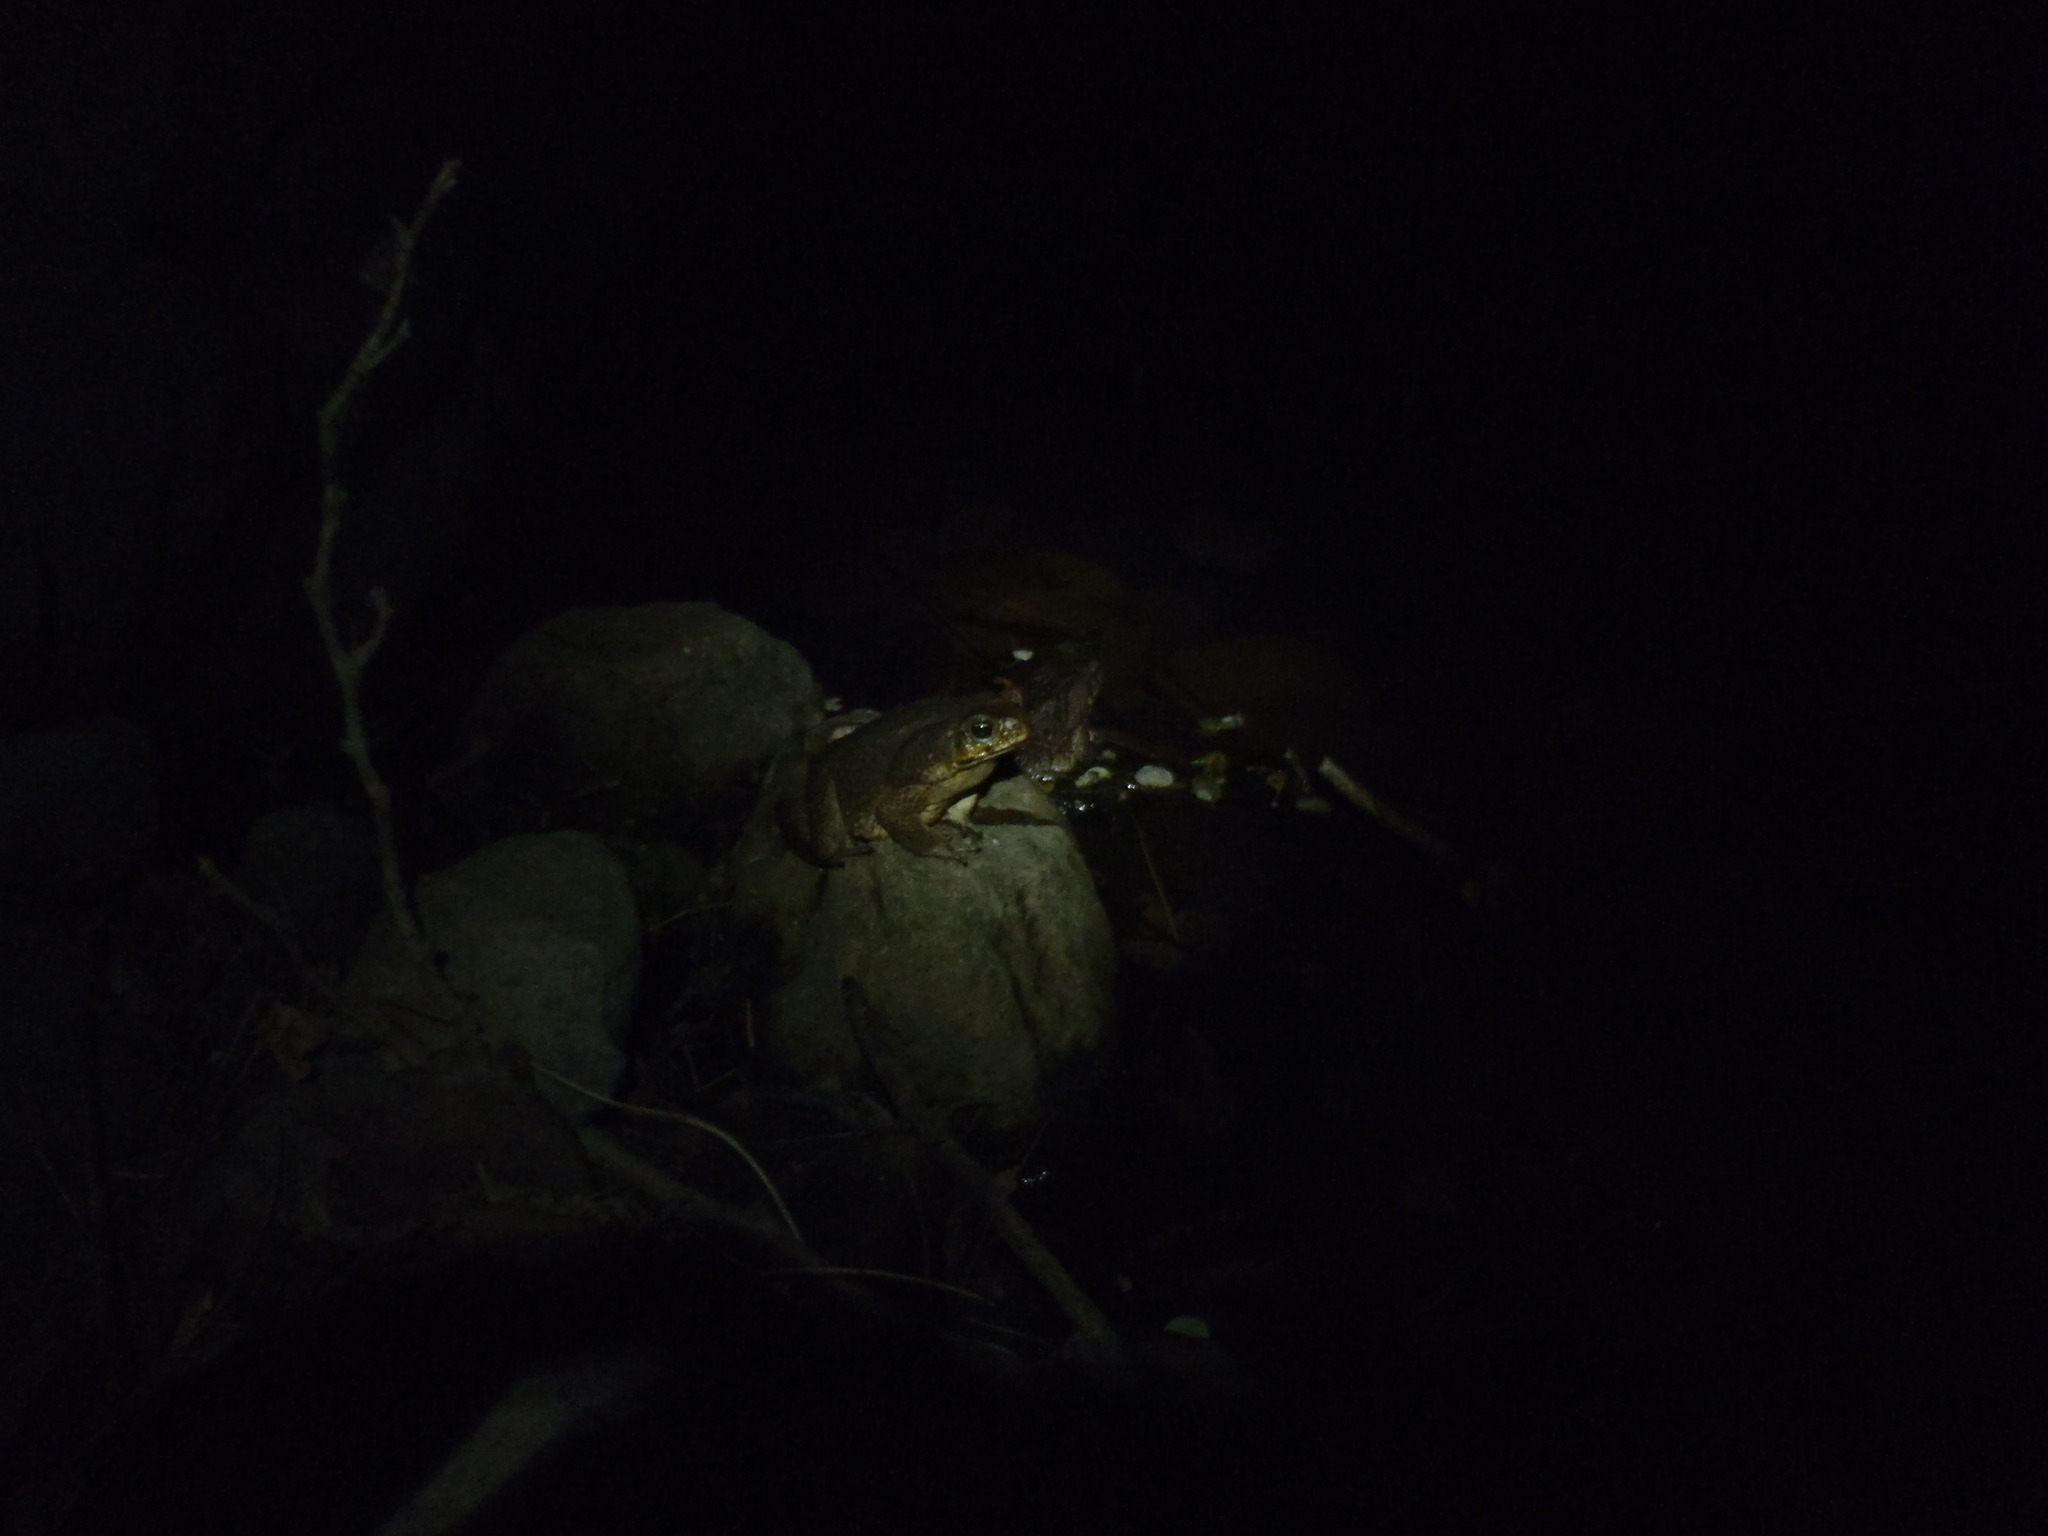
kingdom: Animalia
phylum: Chordata
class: Amphibia
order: Anura
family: Bufonidae
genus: Rhinella
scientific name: Rhinella horribilis
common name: Mesoamerican cane toad
